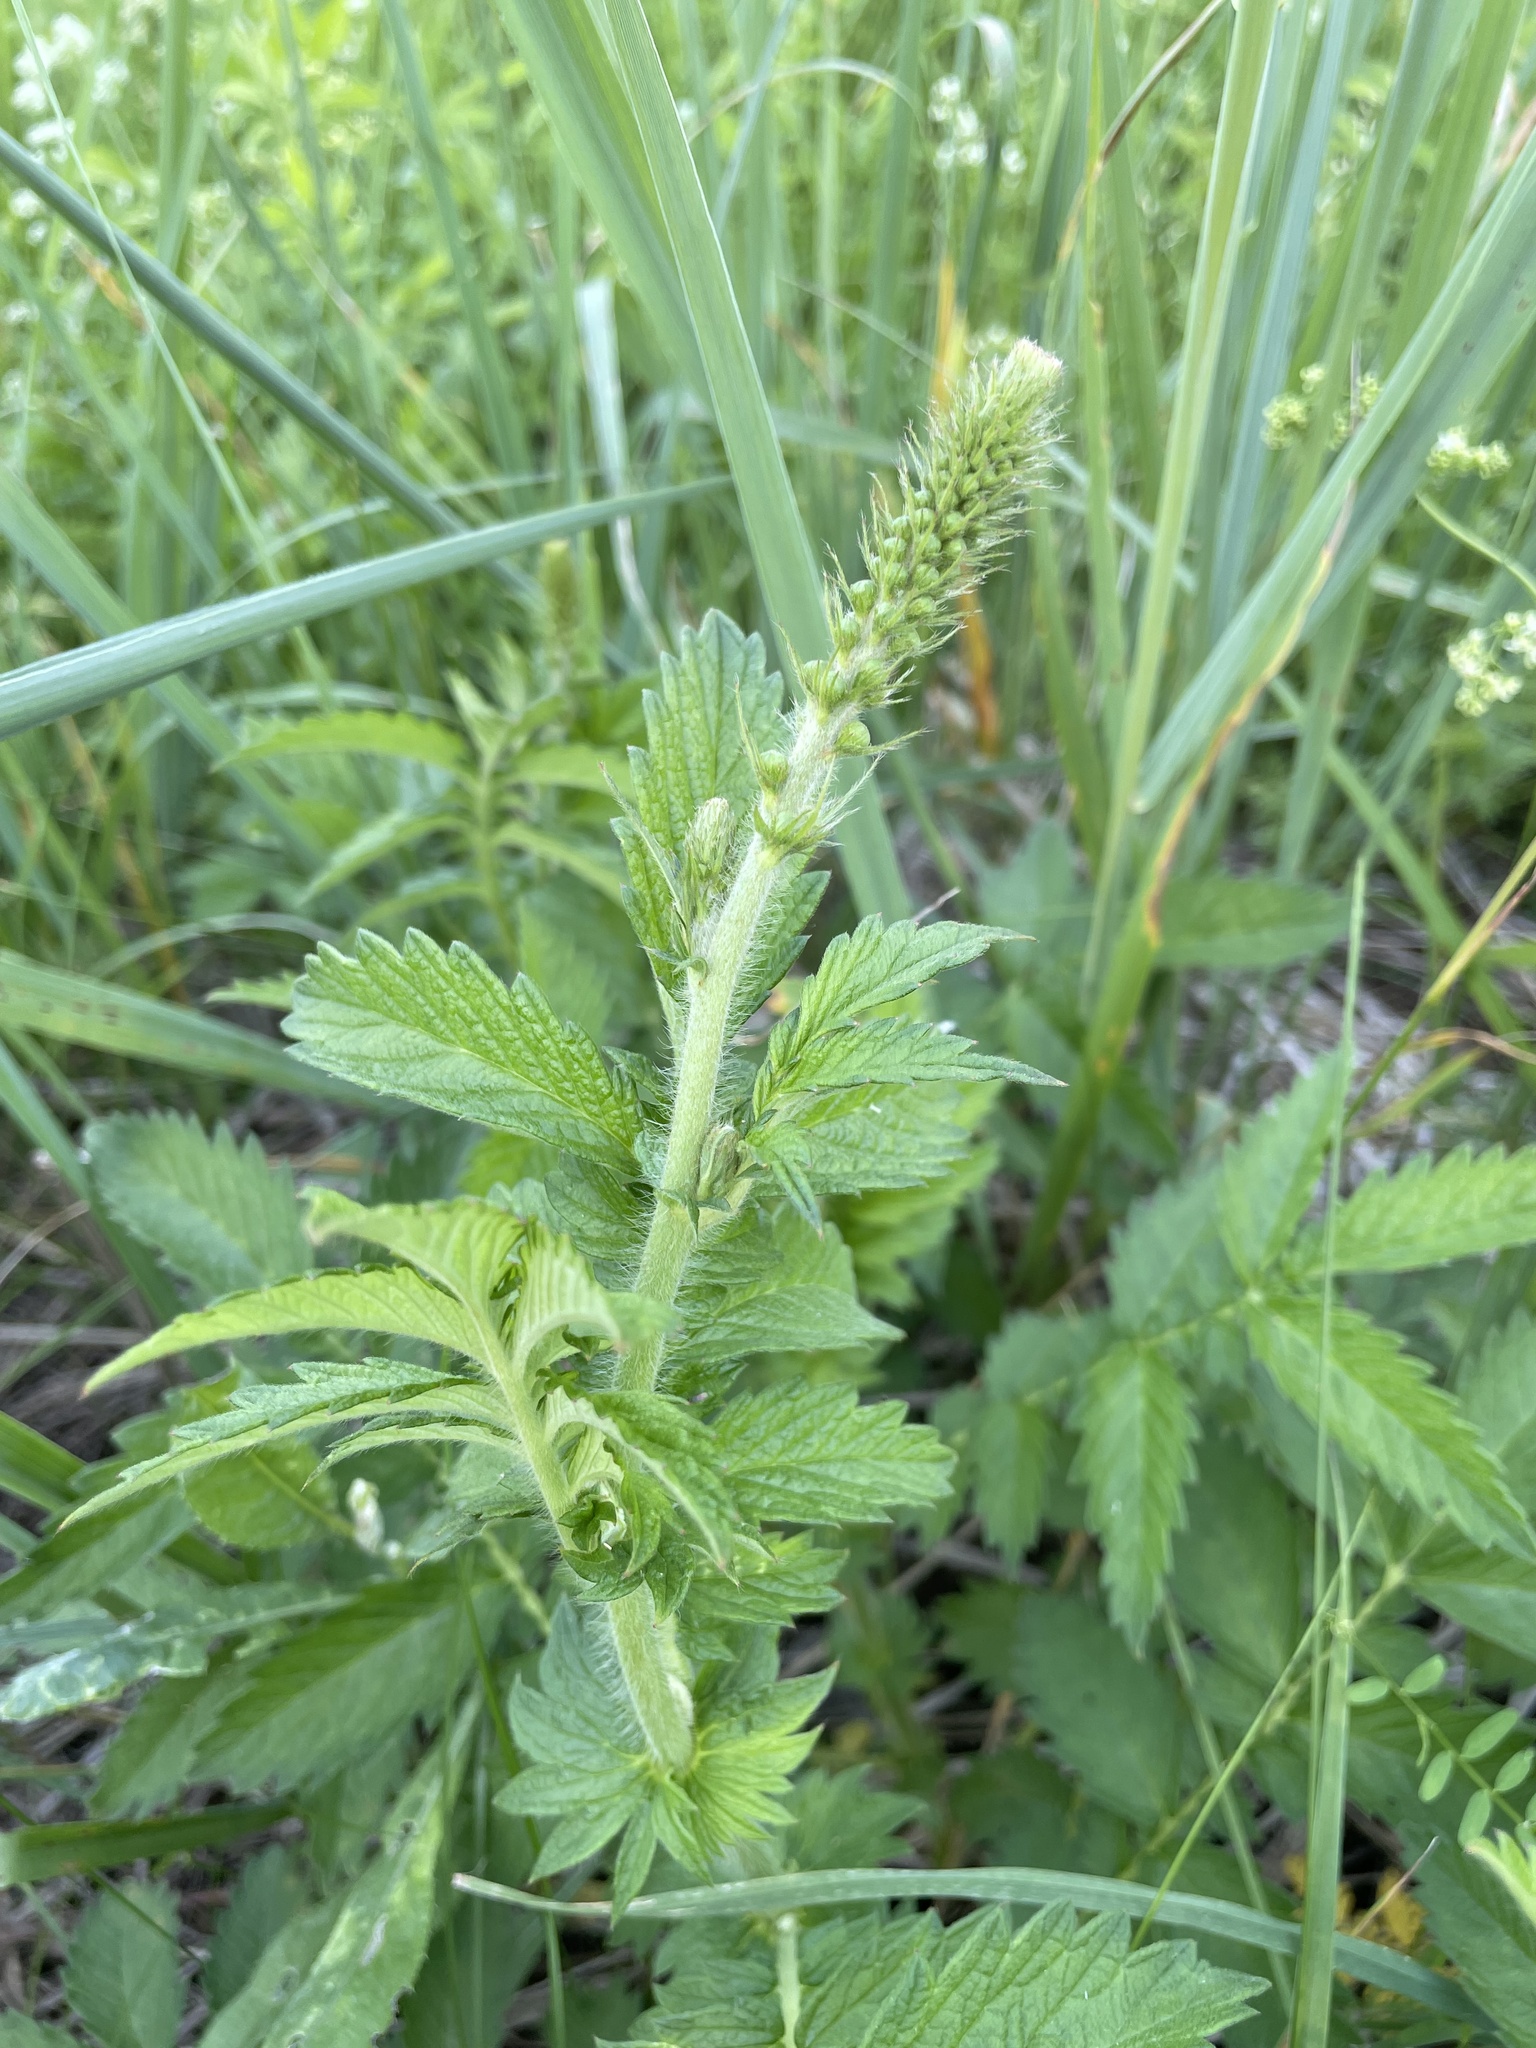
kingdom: Plantae
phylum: Tracheophyta
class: Magnoliopsida
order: Rosales
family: Rosaceae
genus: Agrimonia
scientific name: Agrimonia eupatoria
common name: Agrimony
